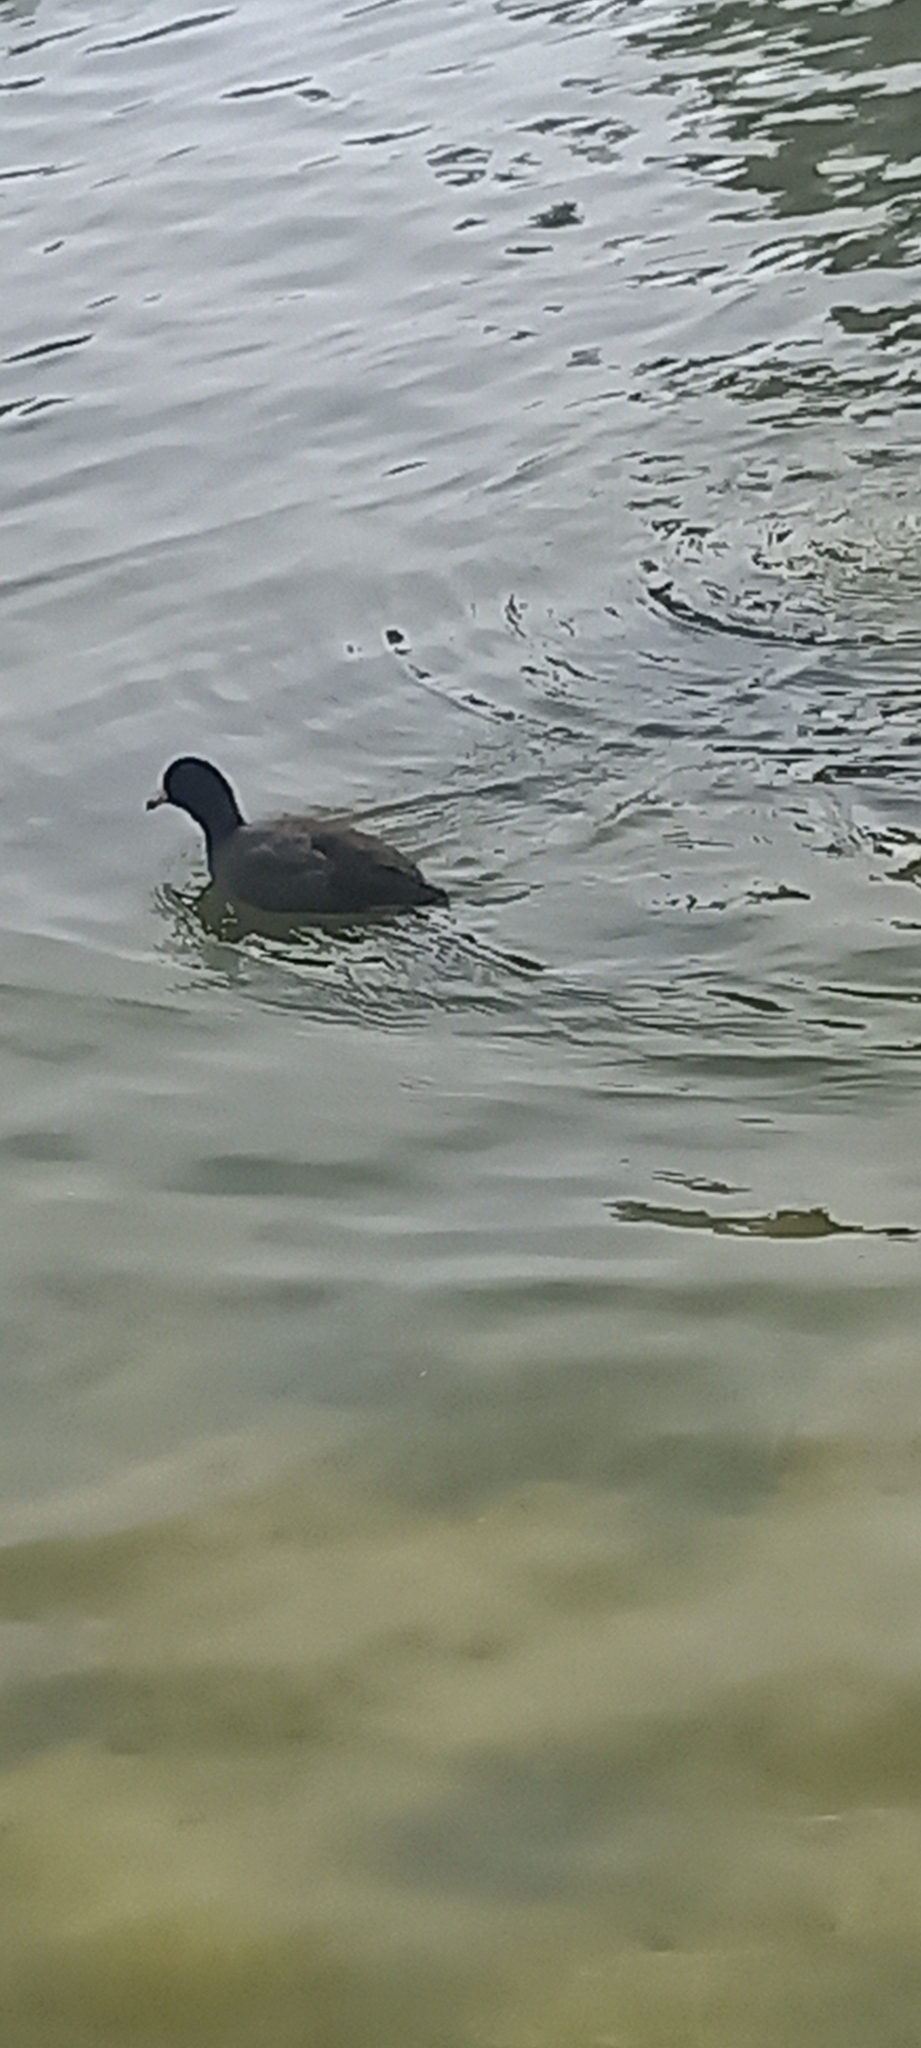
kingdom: Animalia
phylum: Chordata
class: Aves
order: Gruiformes
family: Rallidae
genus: Fulica
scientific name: Fulica americana
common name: American coot
